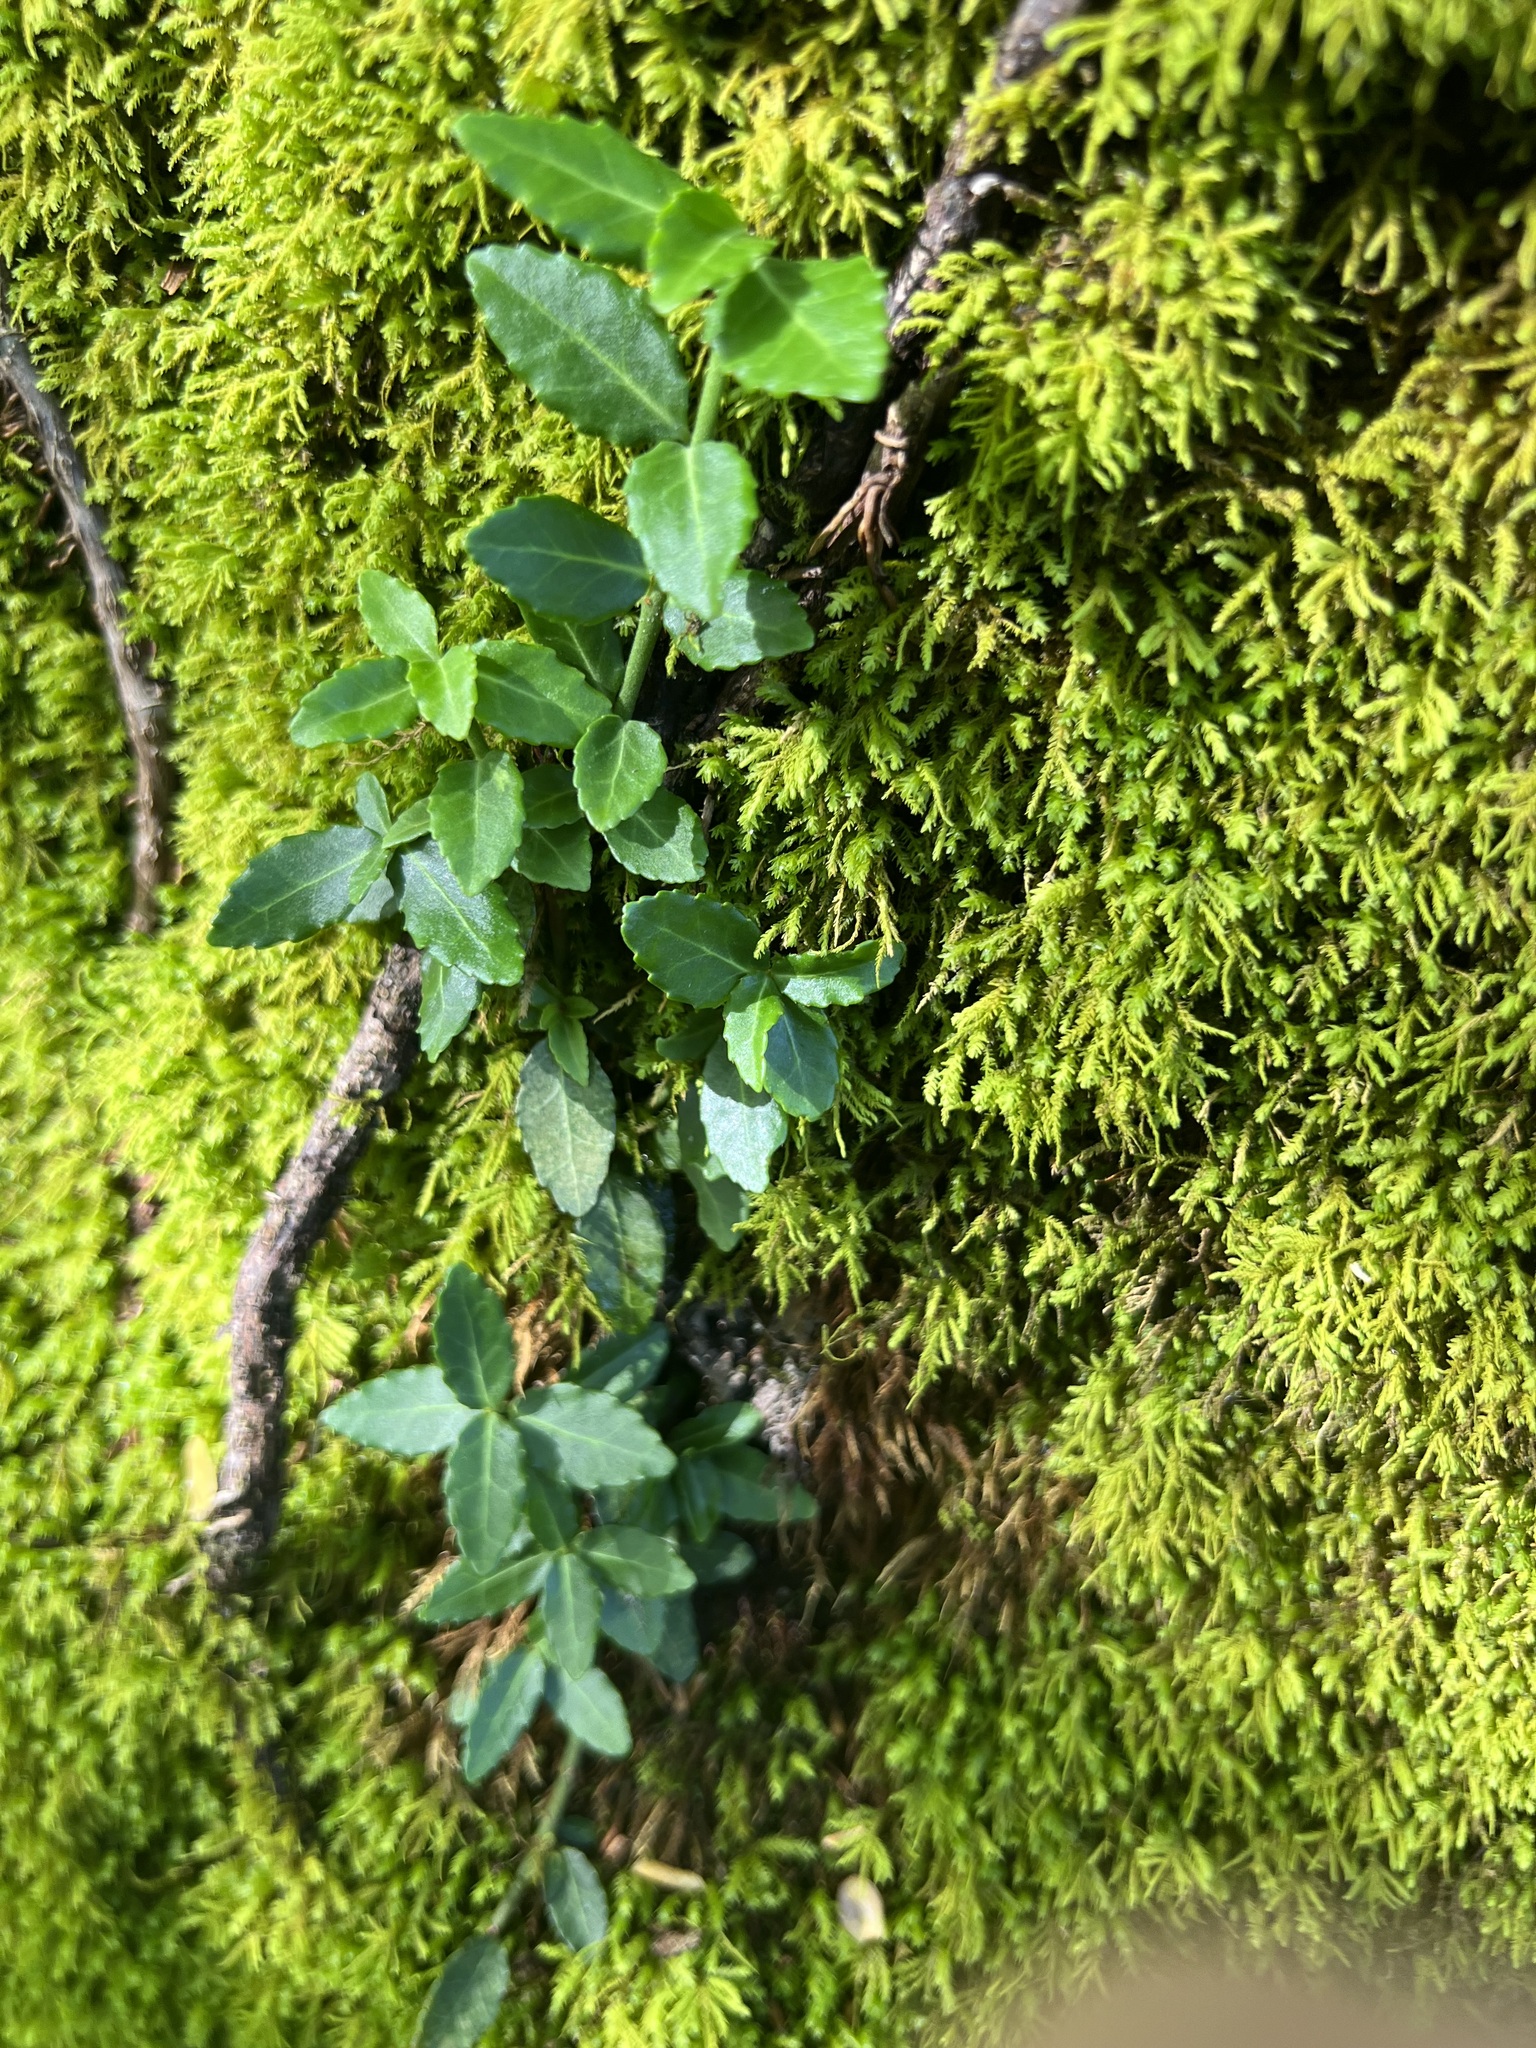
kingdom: Plantae
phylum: Tracheophyta
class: Magnoliopsida
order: Celastrales
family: Celastraceae
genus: Euonymus
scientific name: Euonymus fortunei
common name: Climbing euonymus
